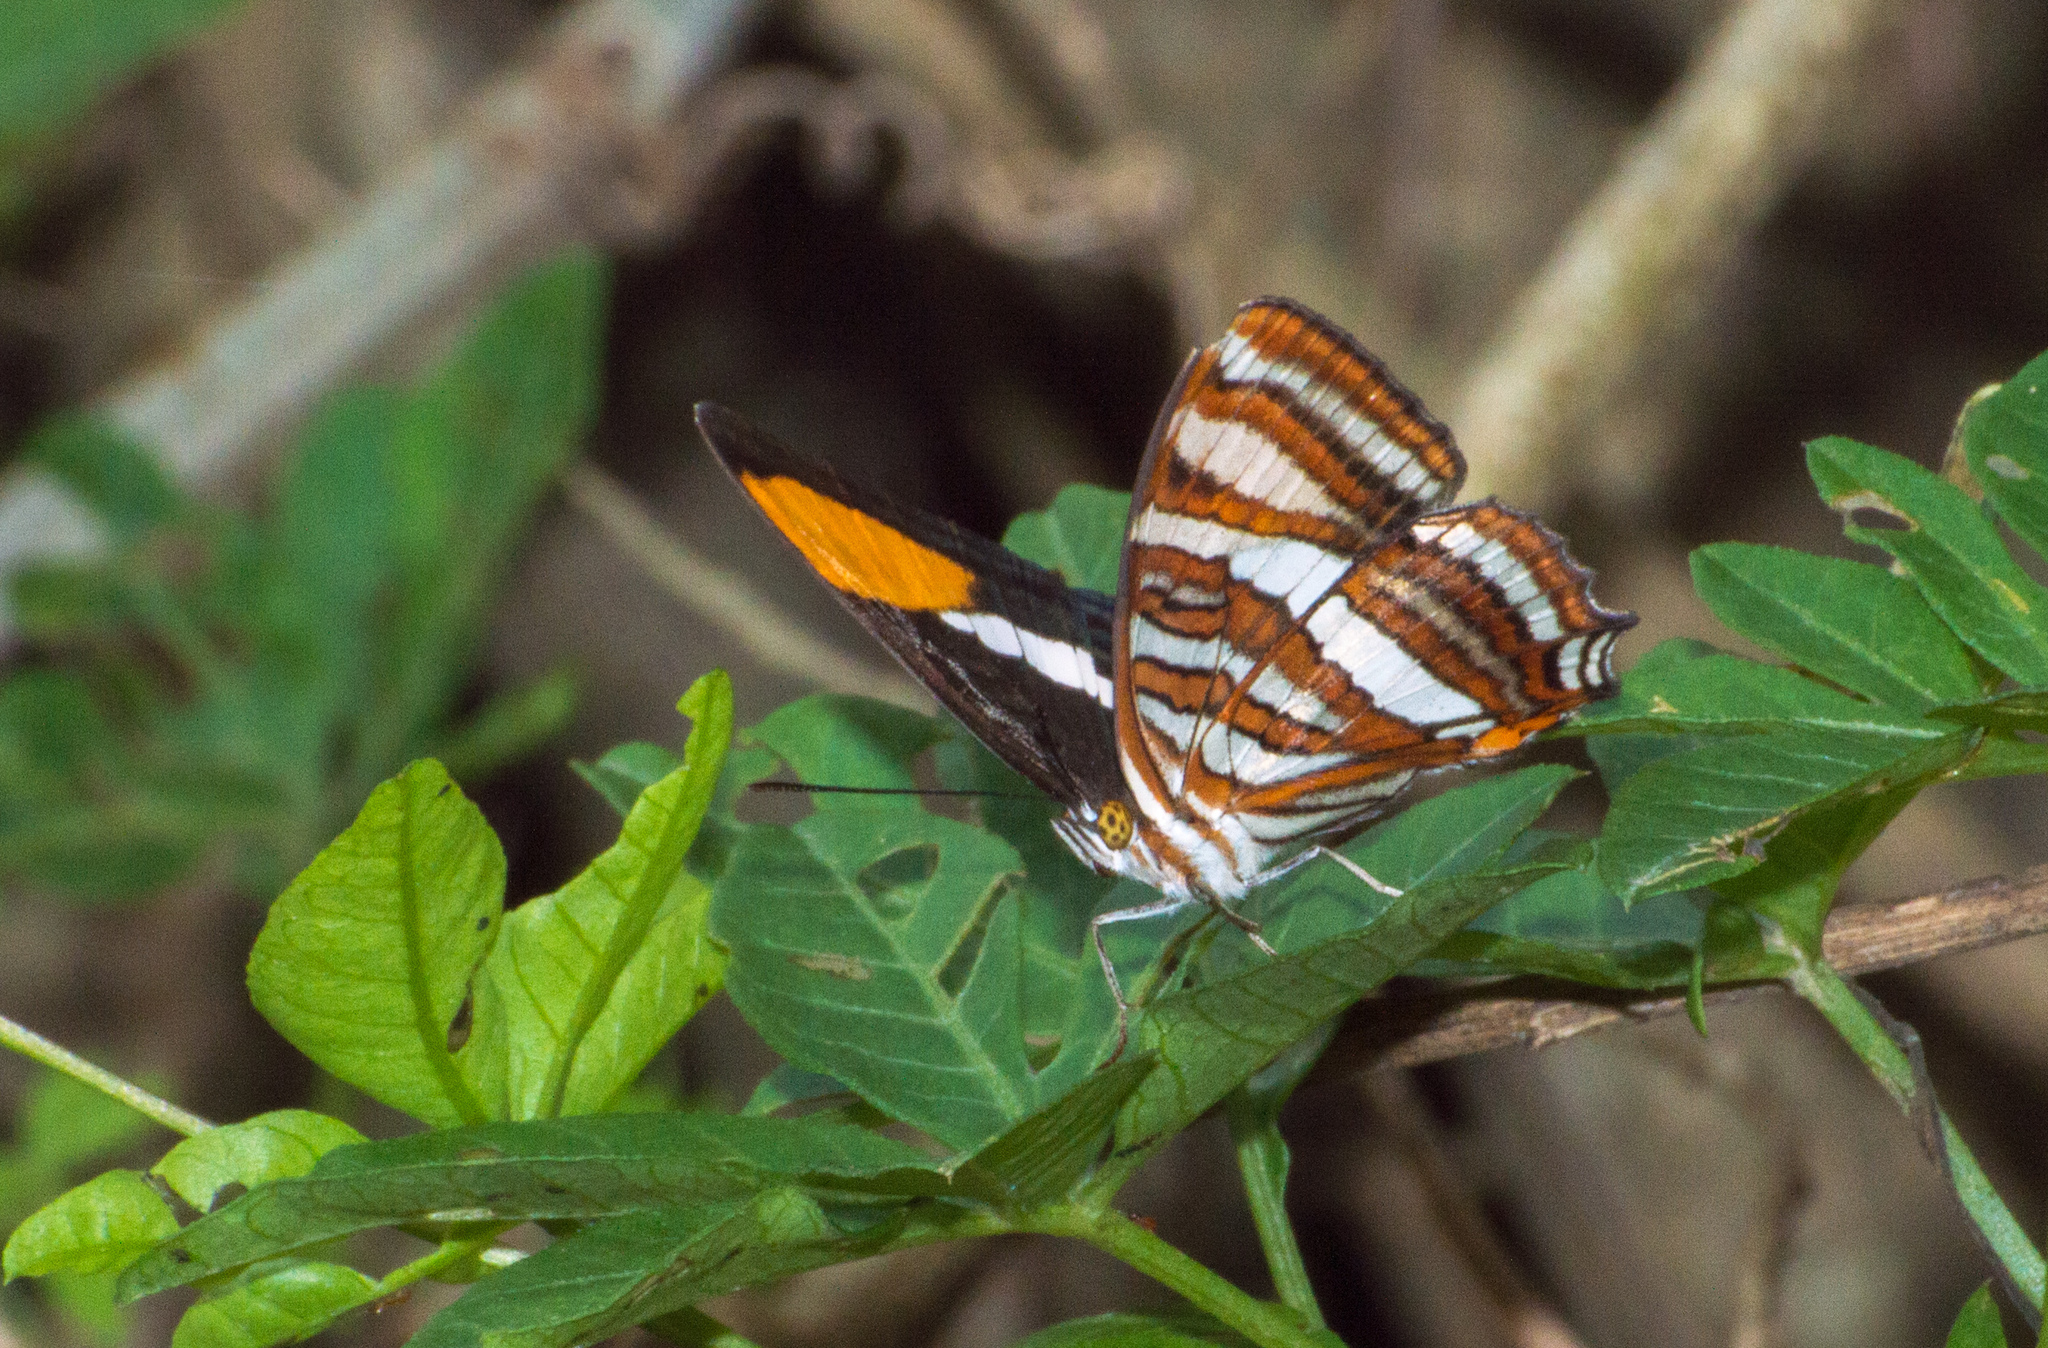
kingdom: Animalia
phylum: Arthropoda
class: Insecta
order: Lepidoptera
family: Nymphalidae
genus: Limenitis
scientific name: Limenitis syma
